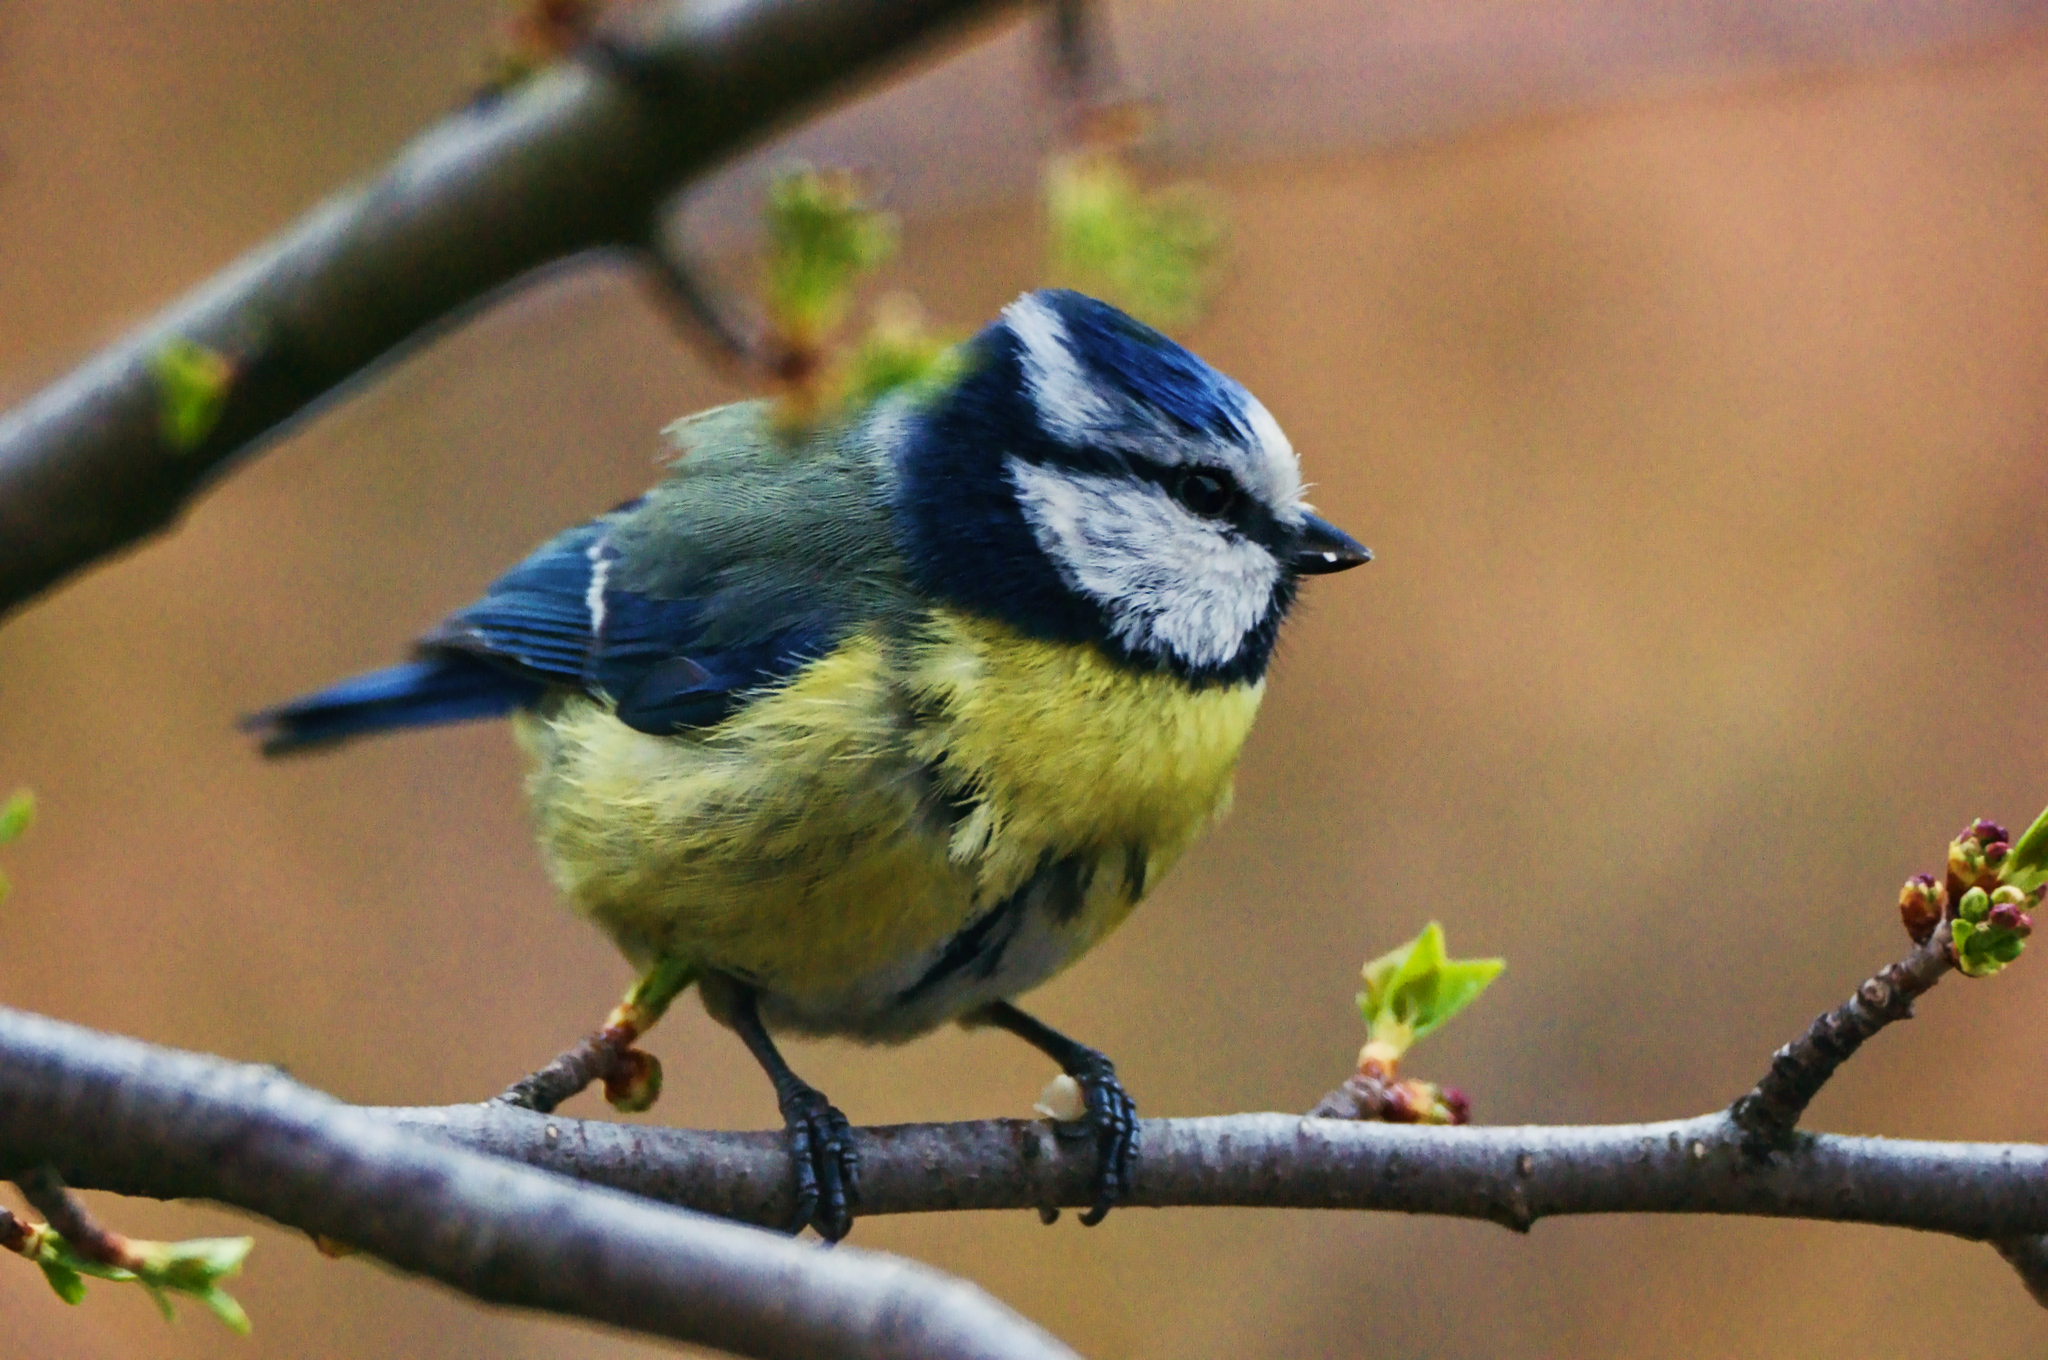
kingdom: Animalia
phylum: Chordata
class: Aves
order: Passeriformes
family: Paridae
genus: Cyanistes
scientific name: Cyanistes caeruleus
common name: Eurasian blue tit
